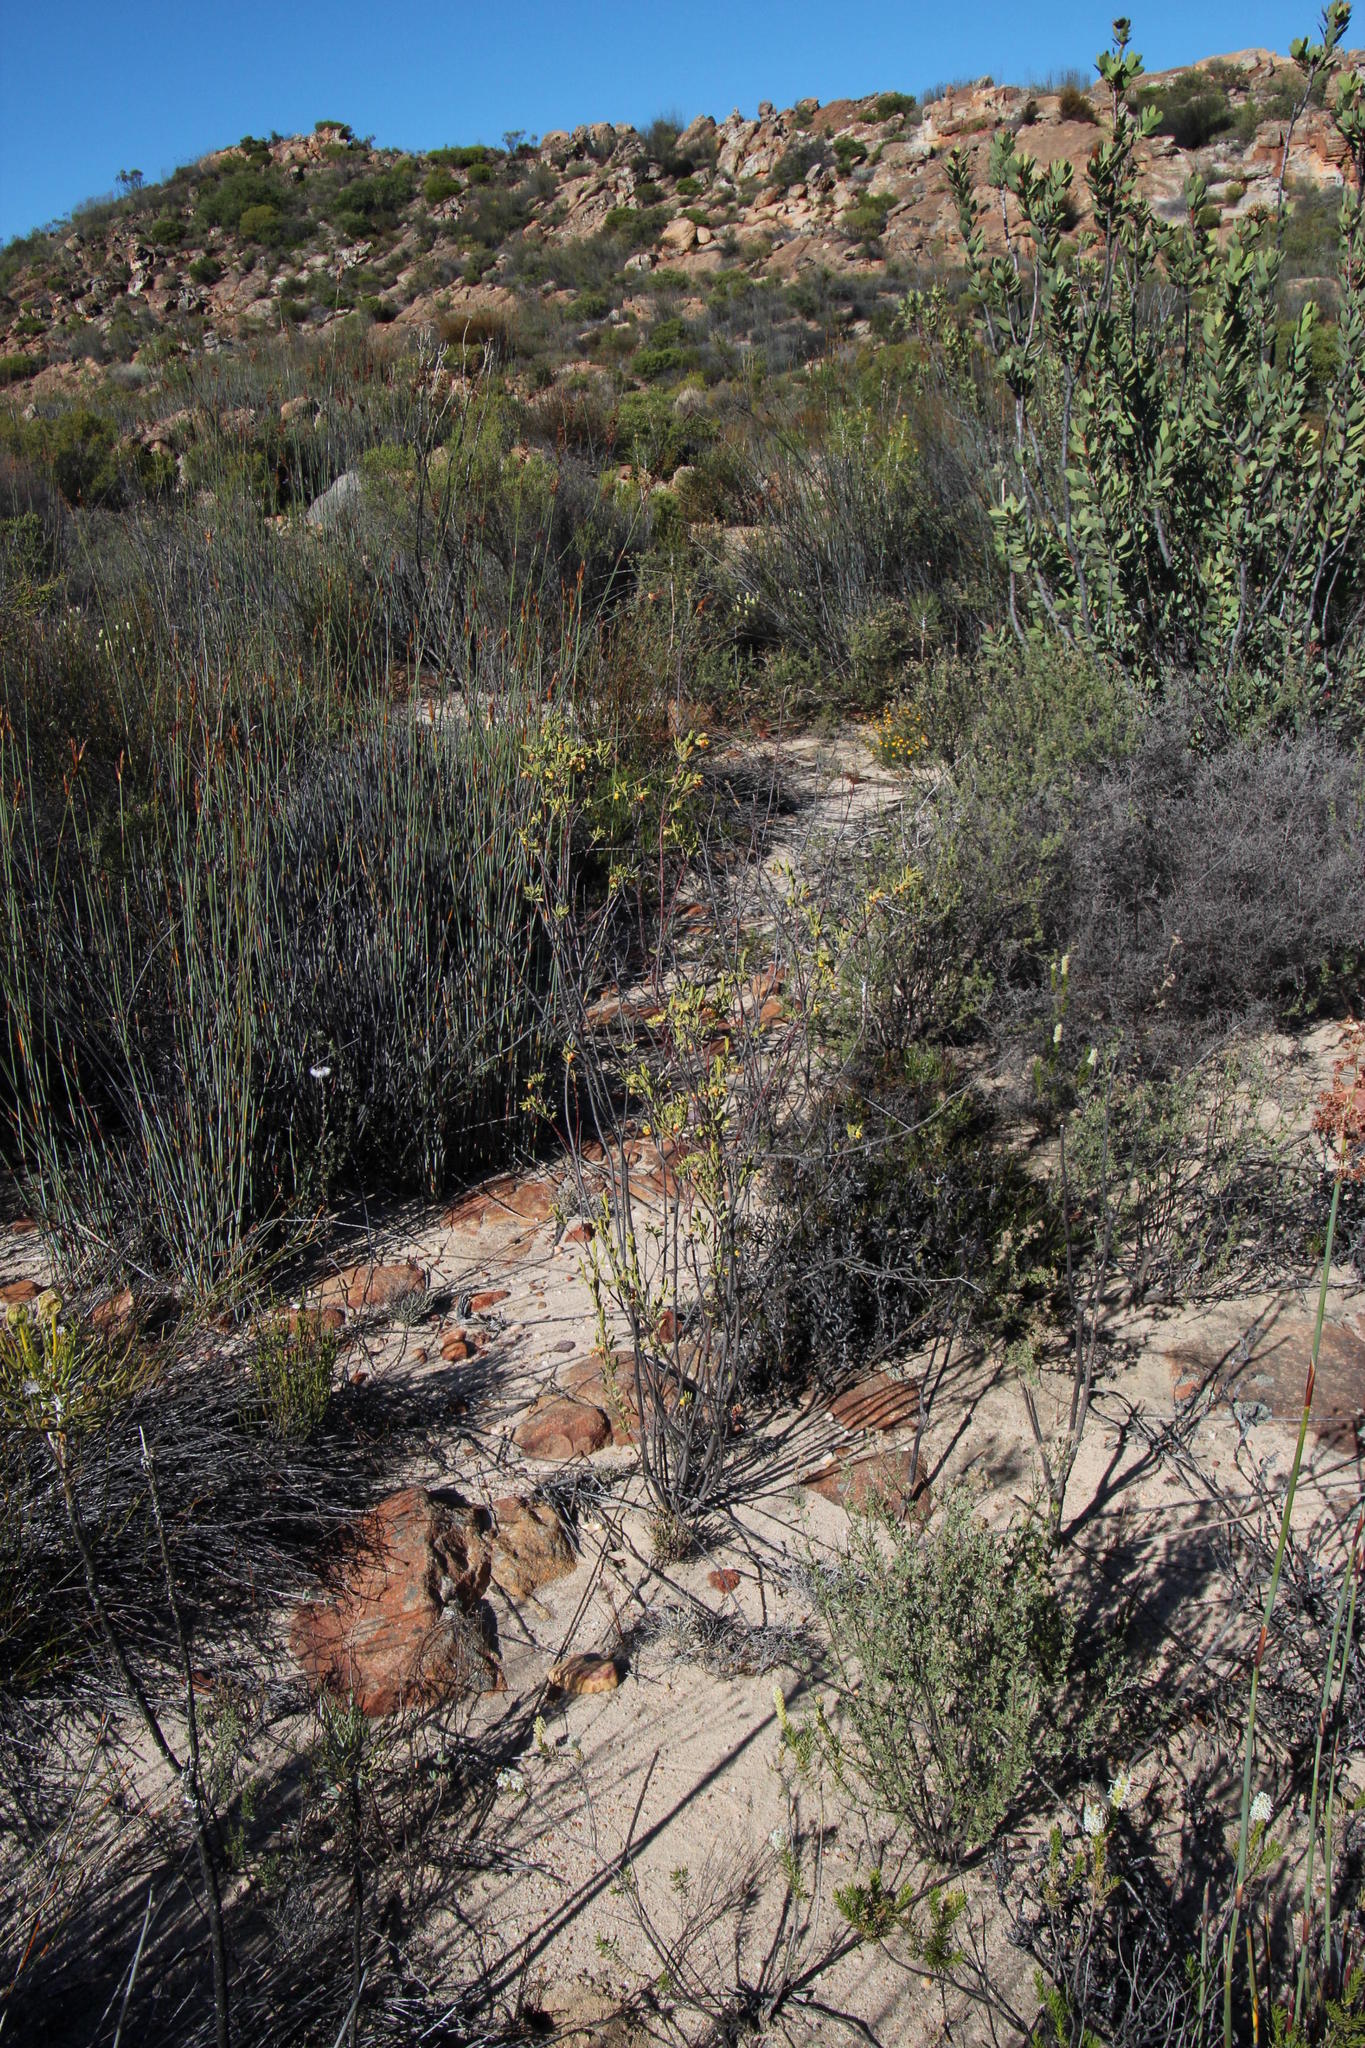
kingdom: Plantae
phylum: Tracheophyta
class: Magnoliopsida
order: Malvales
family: Malvaceae
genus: Hermannia
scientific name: Hermannia odorata
